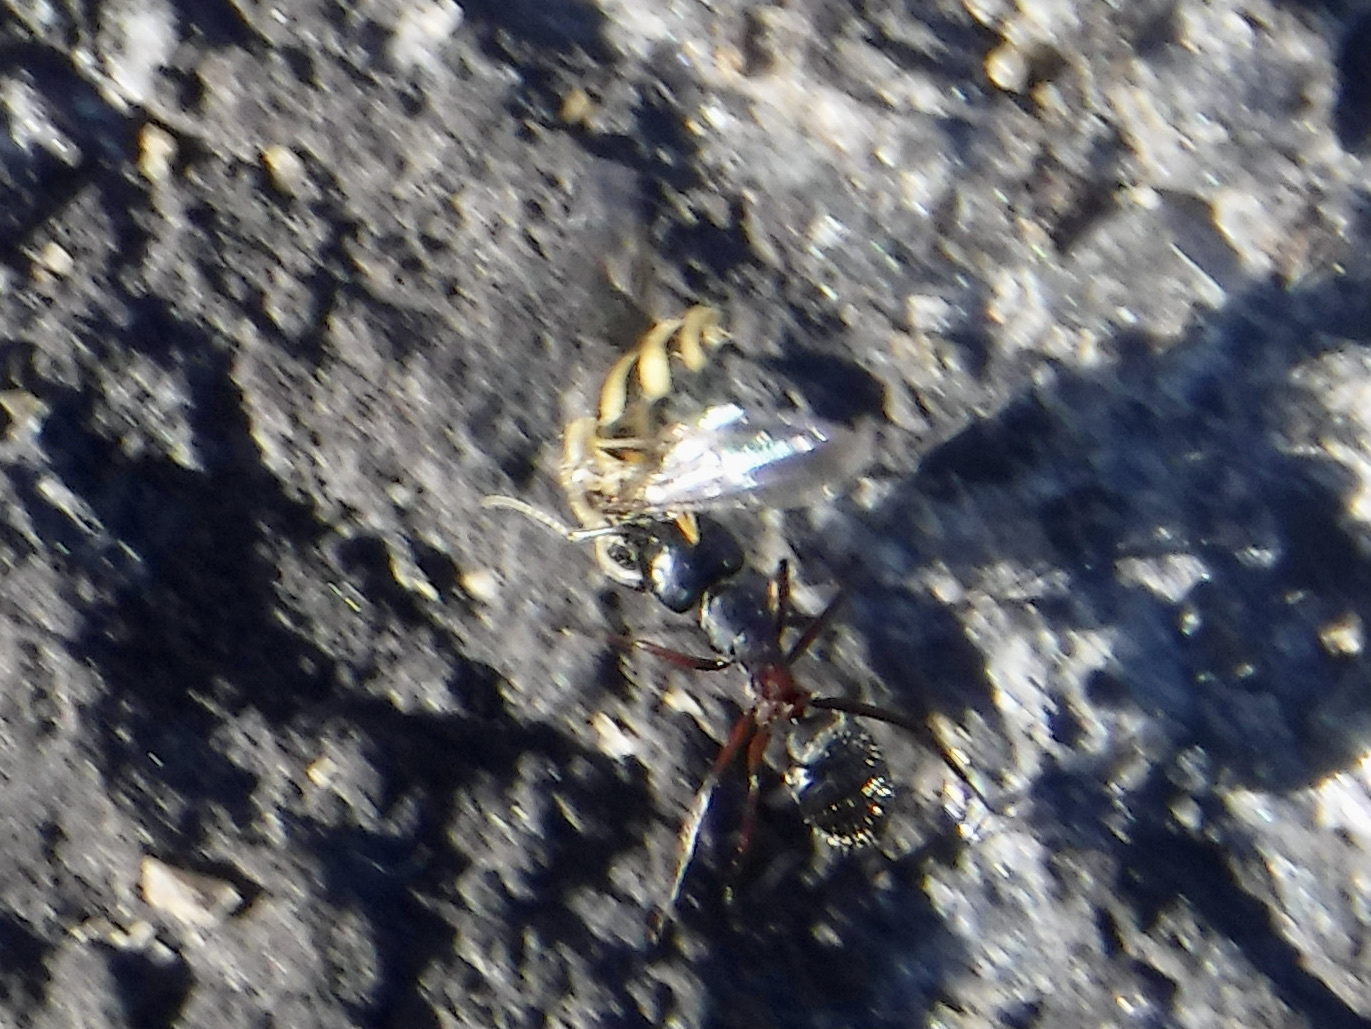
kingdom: Animalia
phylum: Arthropoda
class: Insecta
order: Hymenoptera
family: Formicidae
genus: Camponotus
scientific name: Camponotus herculeanus
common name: Hercules ant
